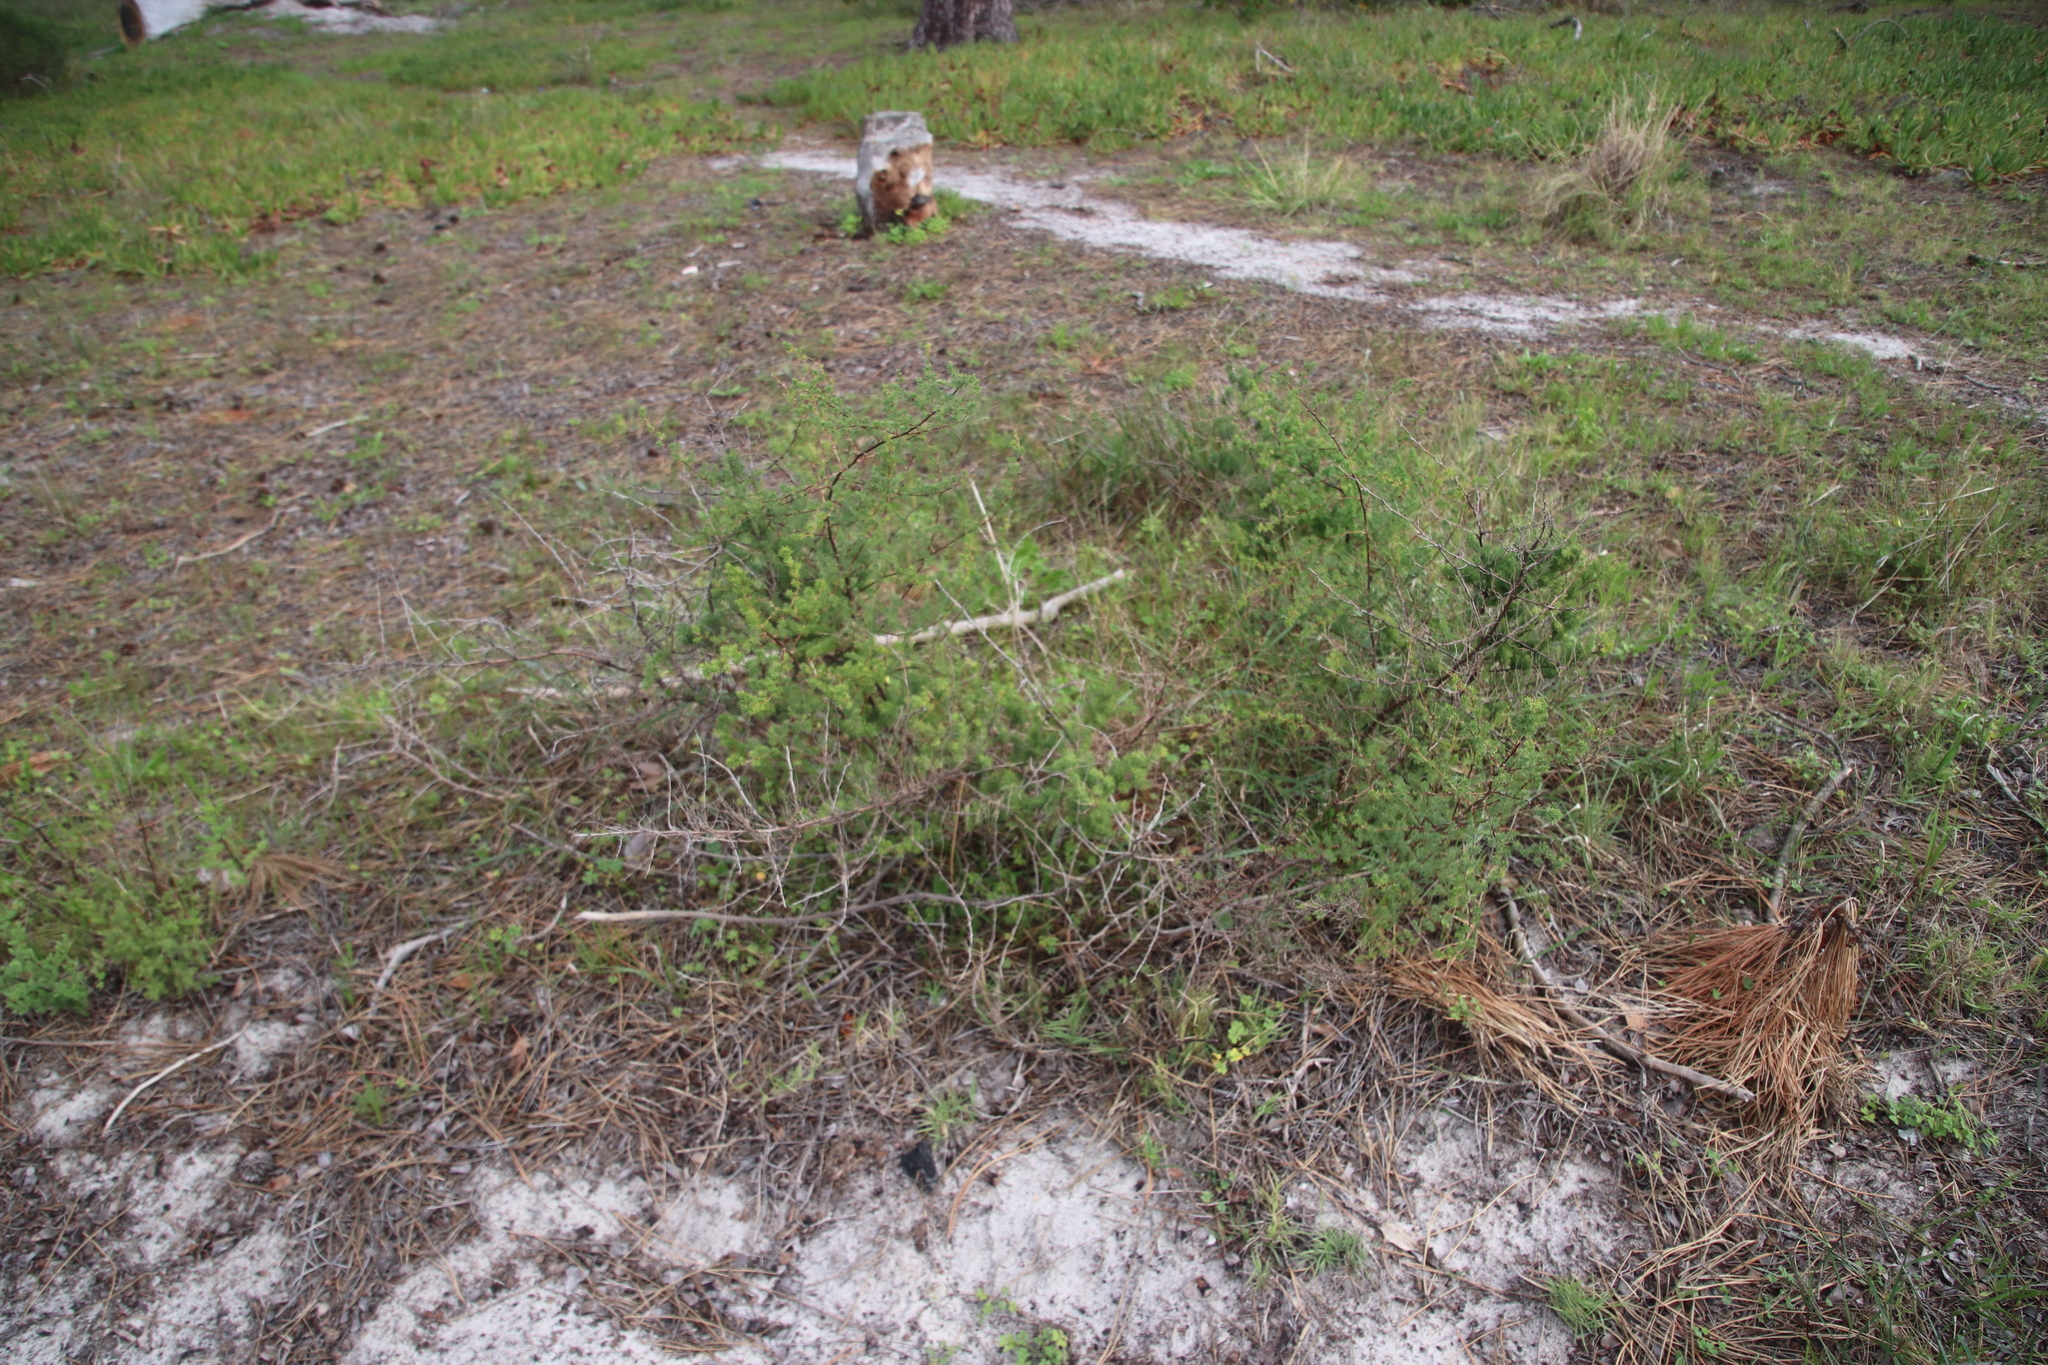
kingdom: Plantae
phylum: Tracheophyta
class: Liliopsida
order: Asparagales
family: Asparagaceae
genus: Asparagus
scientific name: Asparagus rubicundus
